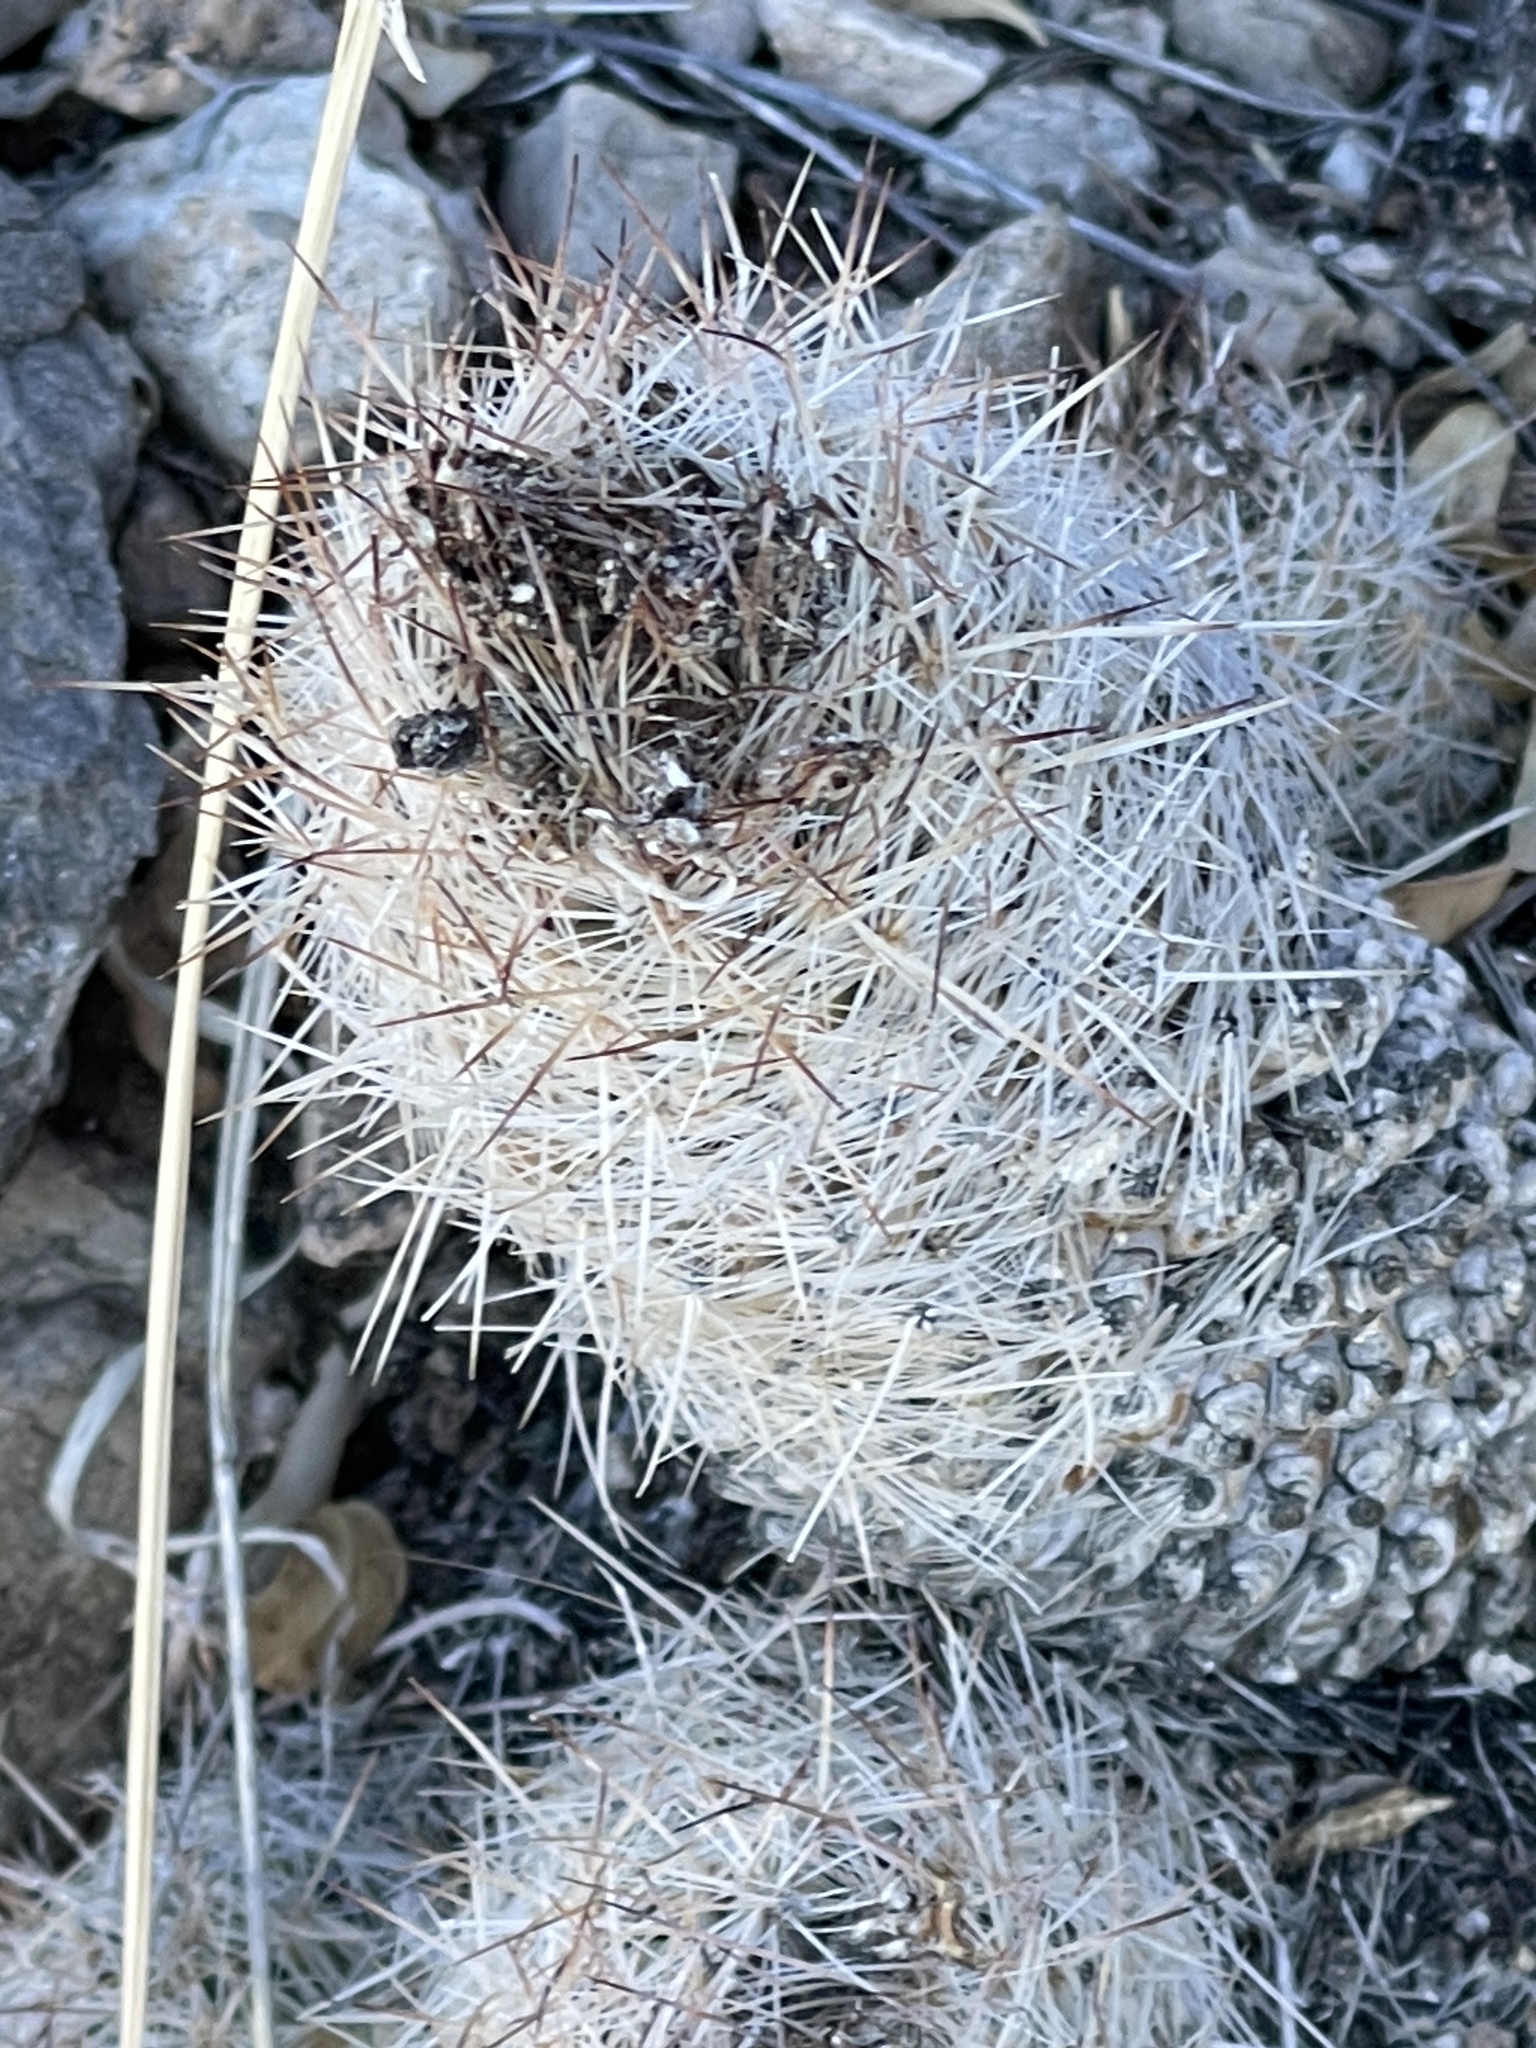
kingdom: Plantae
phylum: Tracheophyta
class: Magnoliopsida
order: Caryophyllales
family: Cactaceae
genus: Pelecyphora
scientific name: Pelecyphora tuberculosa
